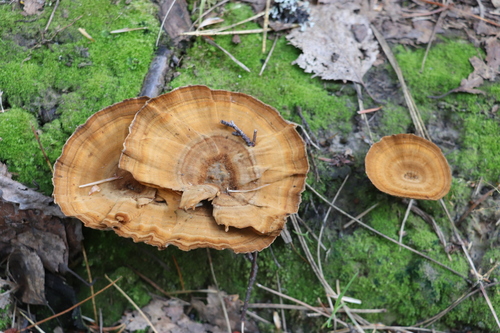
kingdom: Fungi
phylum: Basidiomycota
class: Agaricomycetes
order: Hymenochaetales
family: Hymenochaetaceae
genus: Coltricia
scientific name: Coltricia perennis
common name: Tiger's eye
